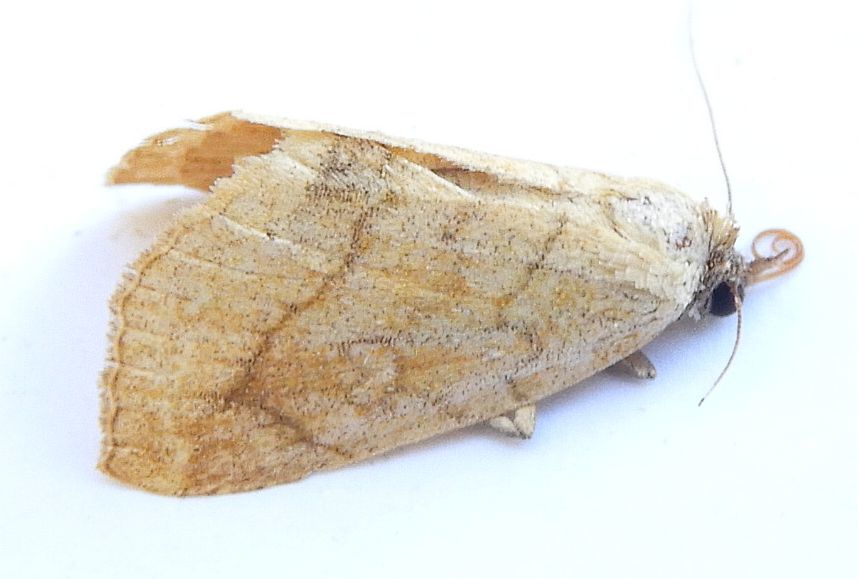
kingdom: Animalia
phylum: Arthropoda
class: Insecta
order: Lepidoptera
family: Erebidae
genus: Isogona
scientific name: Isogona punctipennis
